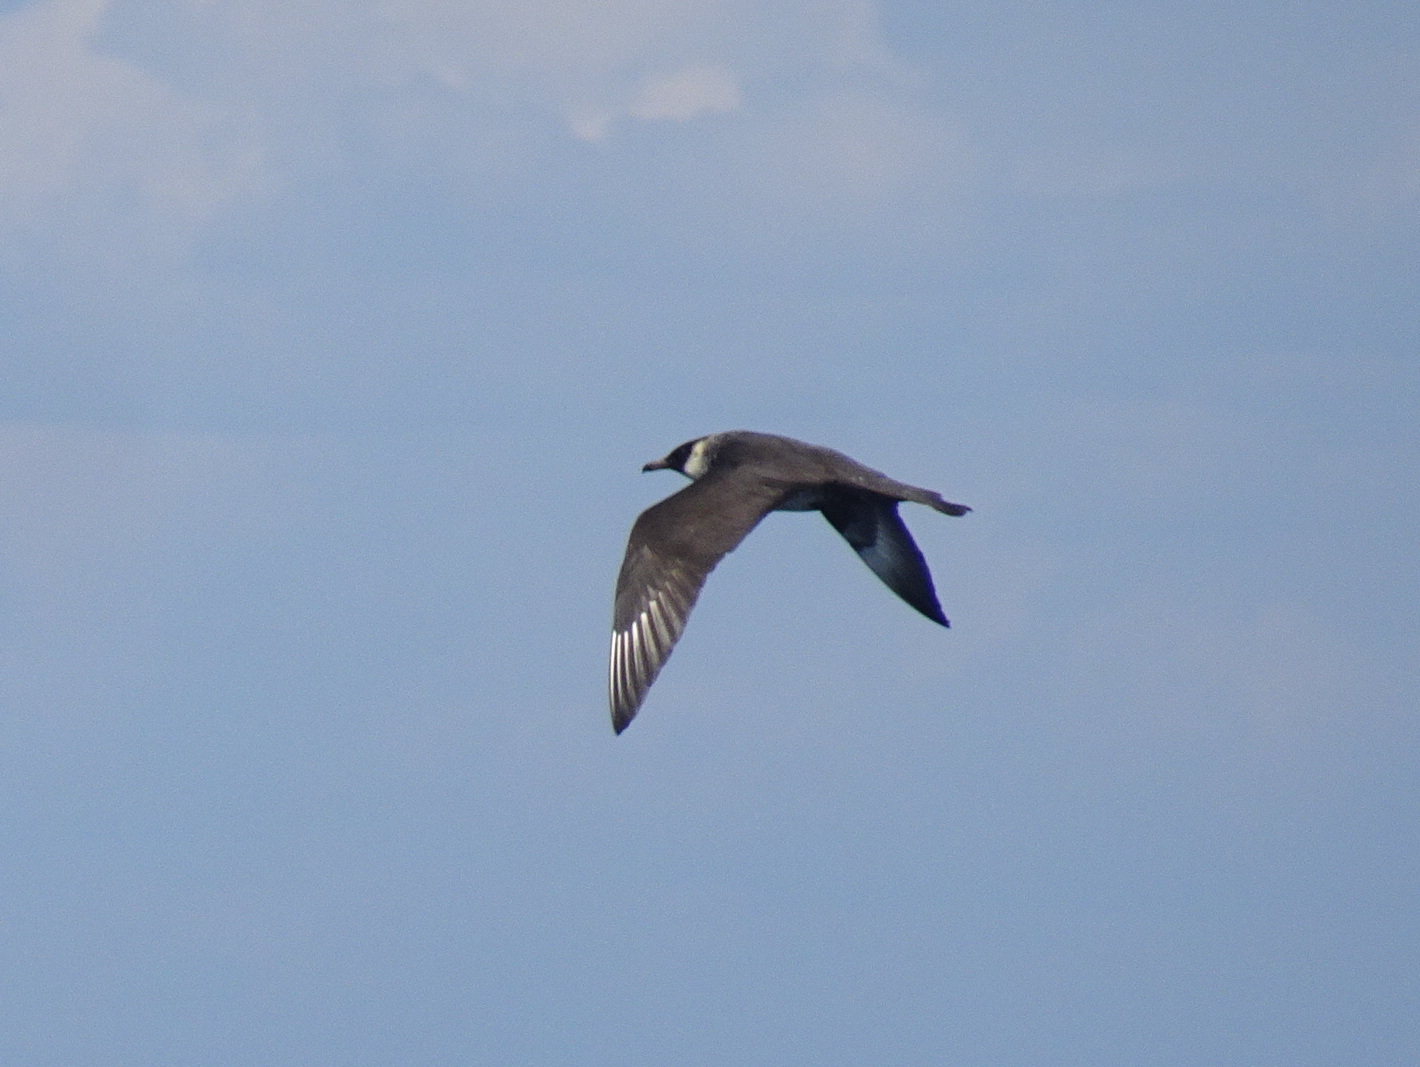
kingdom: Animalia
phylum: Chordata
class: Aves
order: Charadriiformes
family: Stercorariidae
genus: Stercorarius
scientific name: Stercorarius pomarinus
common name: Pomarine jaeger
